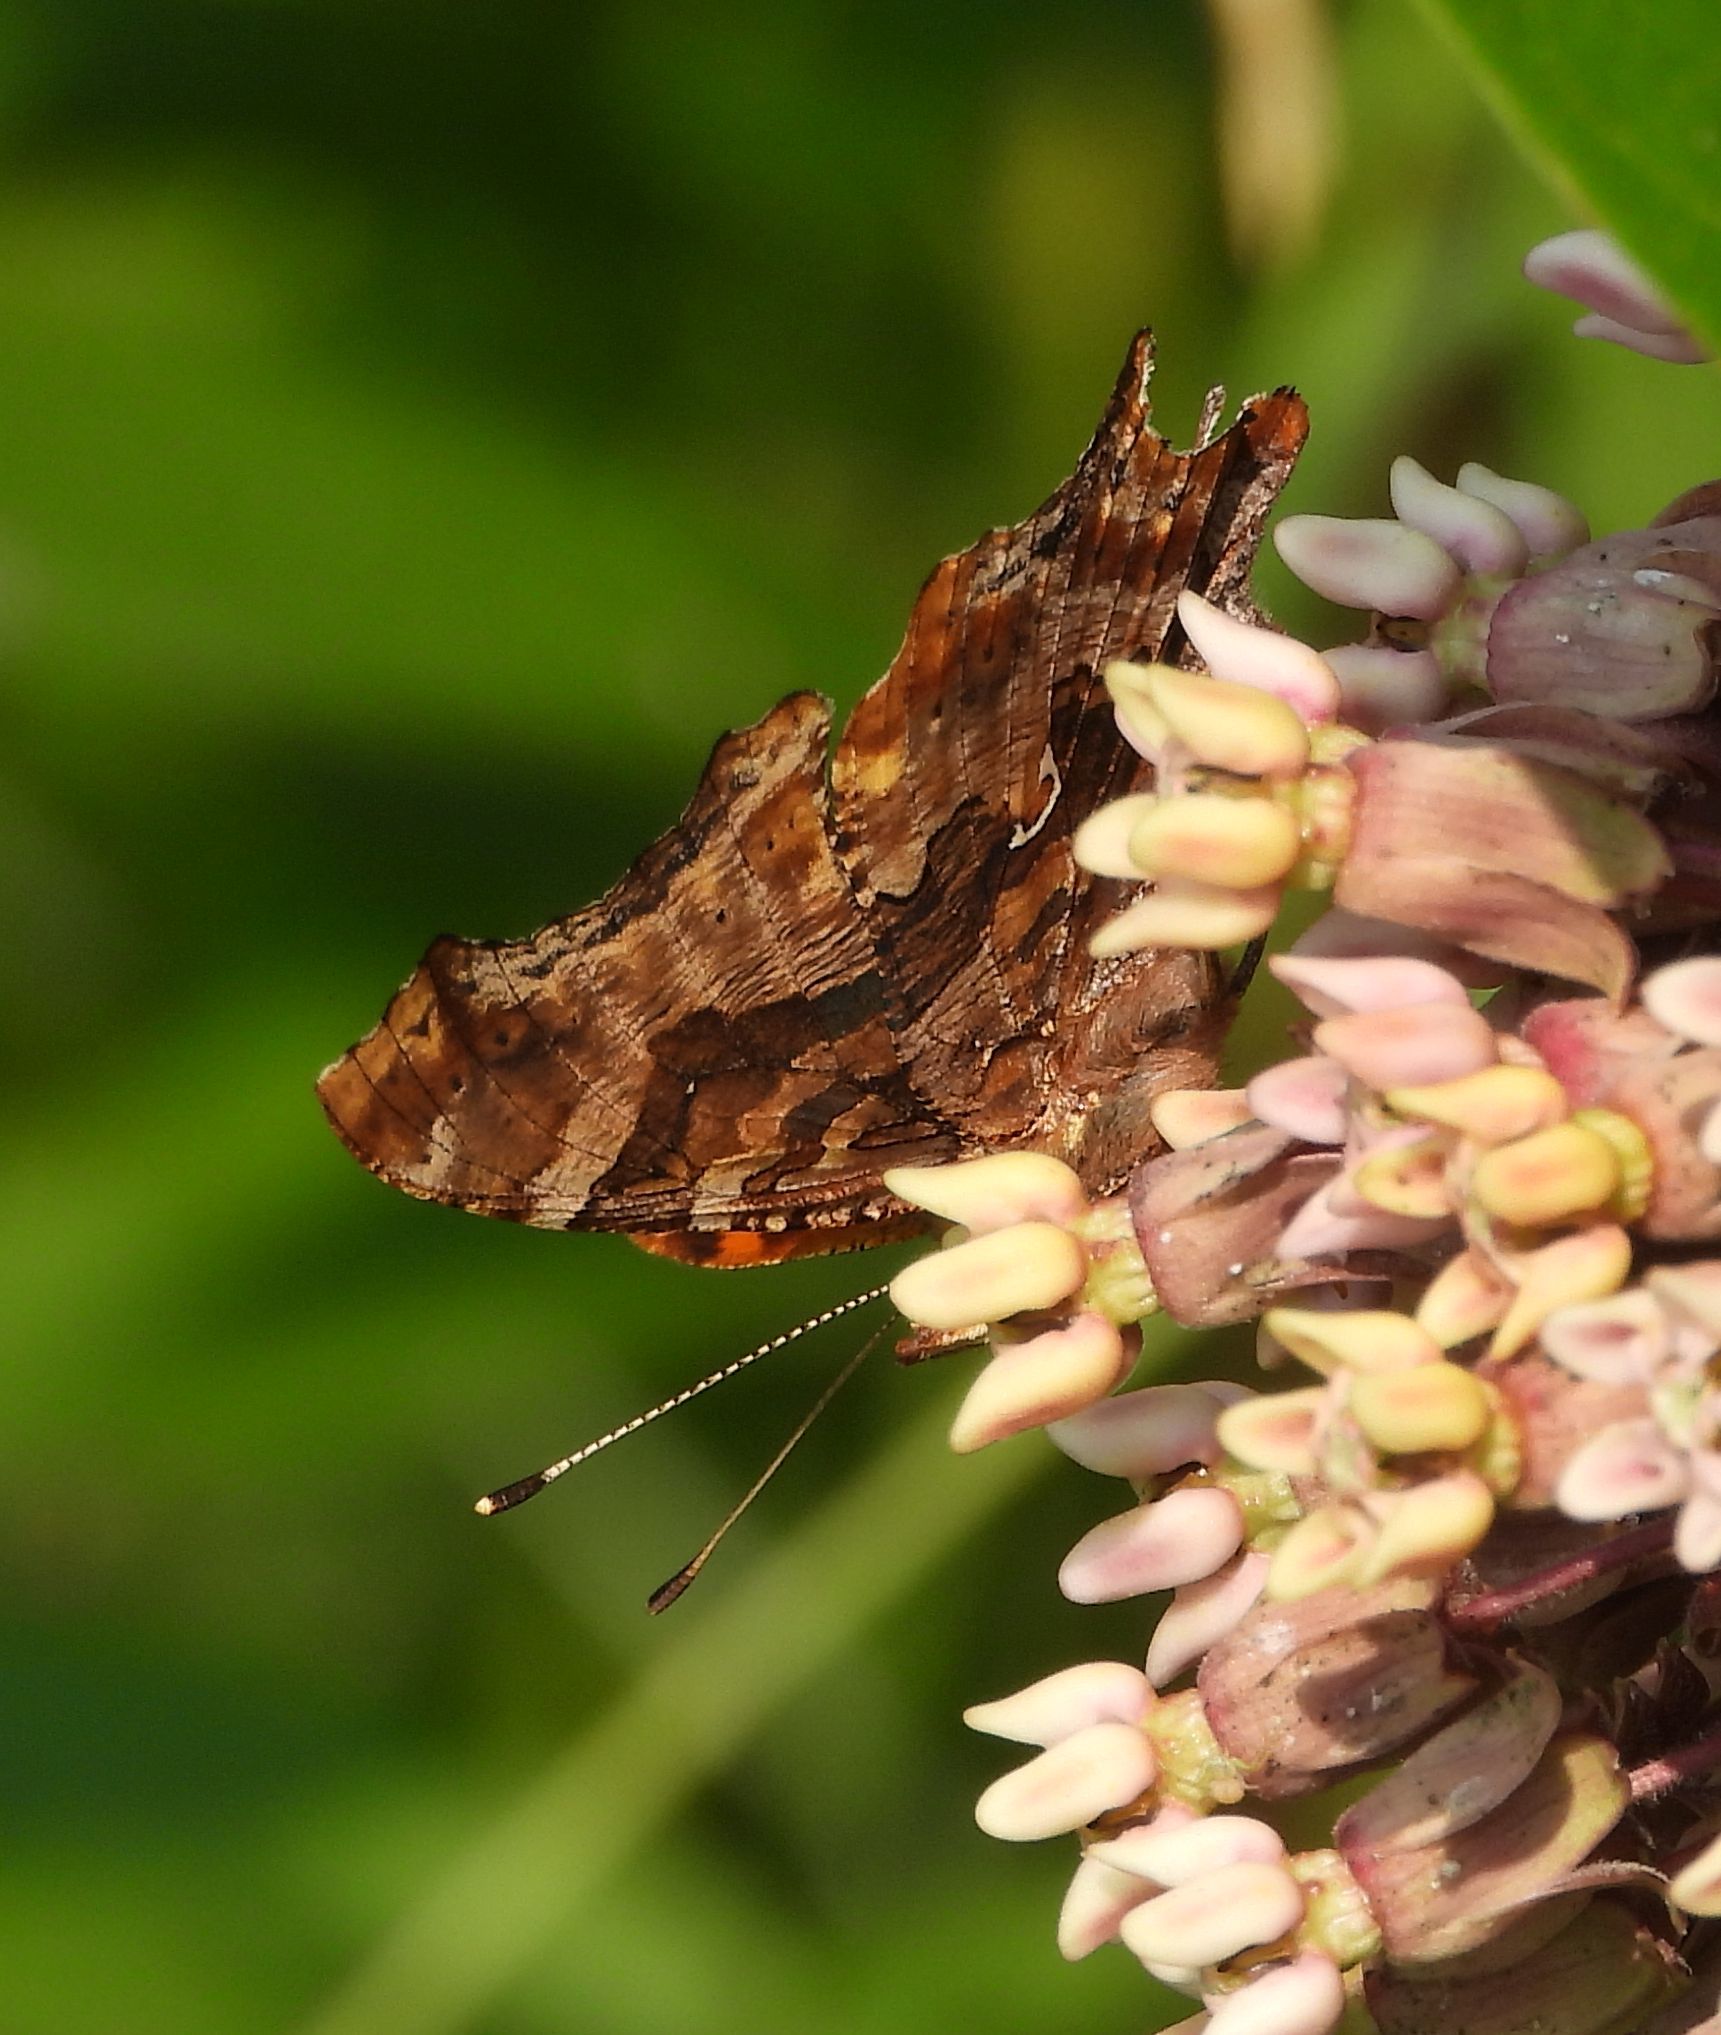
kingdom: Animalia
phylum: Arthropoda
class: Insecta
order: Lepidoptera
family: Nymphalidae
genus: Polygonia
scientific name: Polygonia comma
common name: Eastern comma
